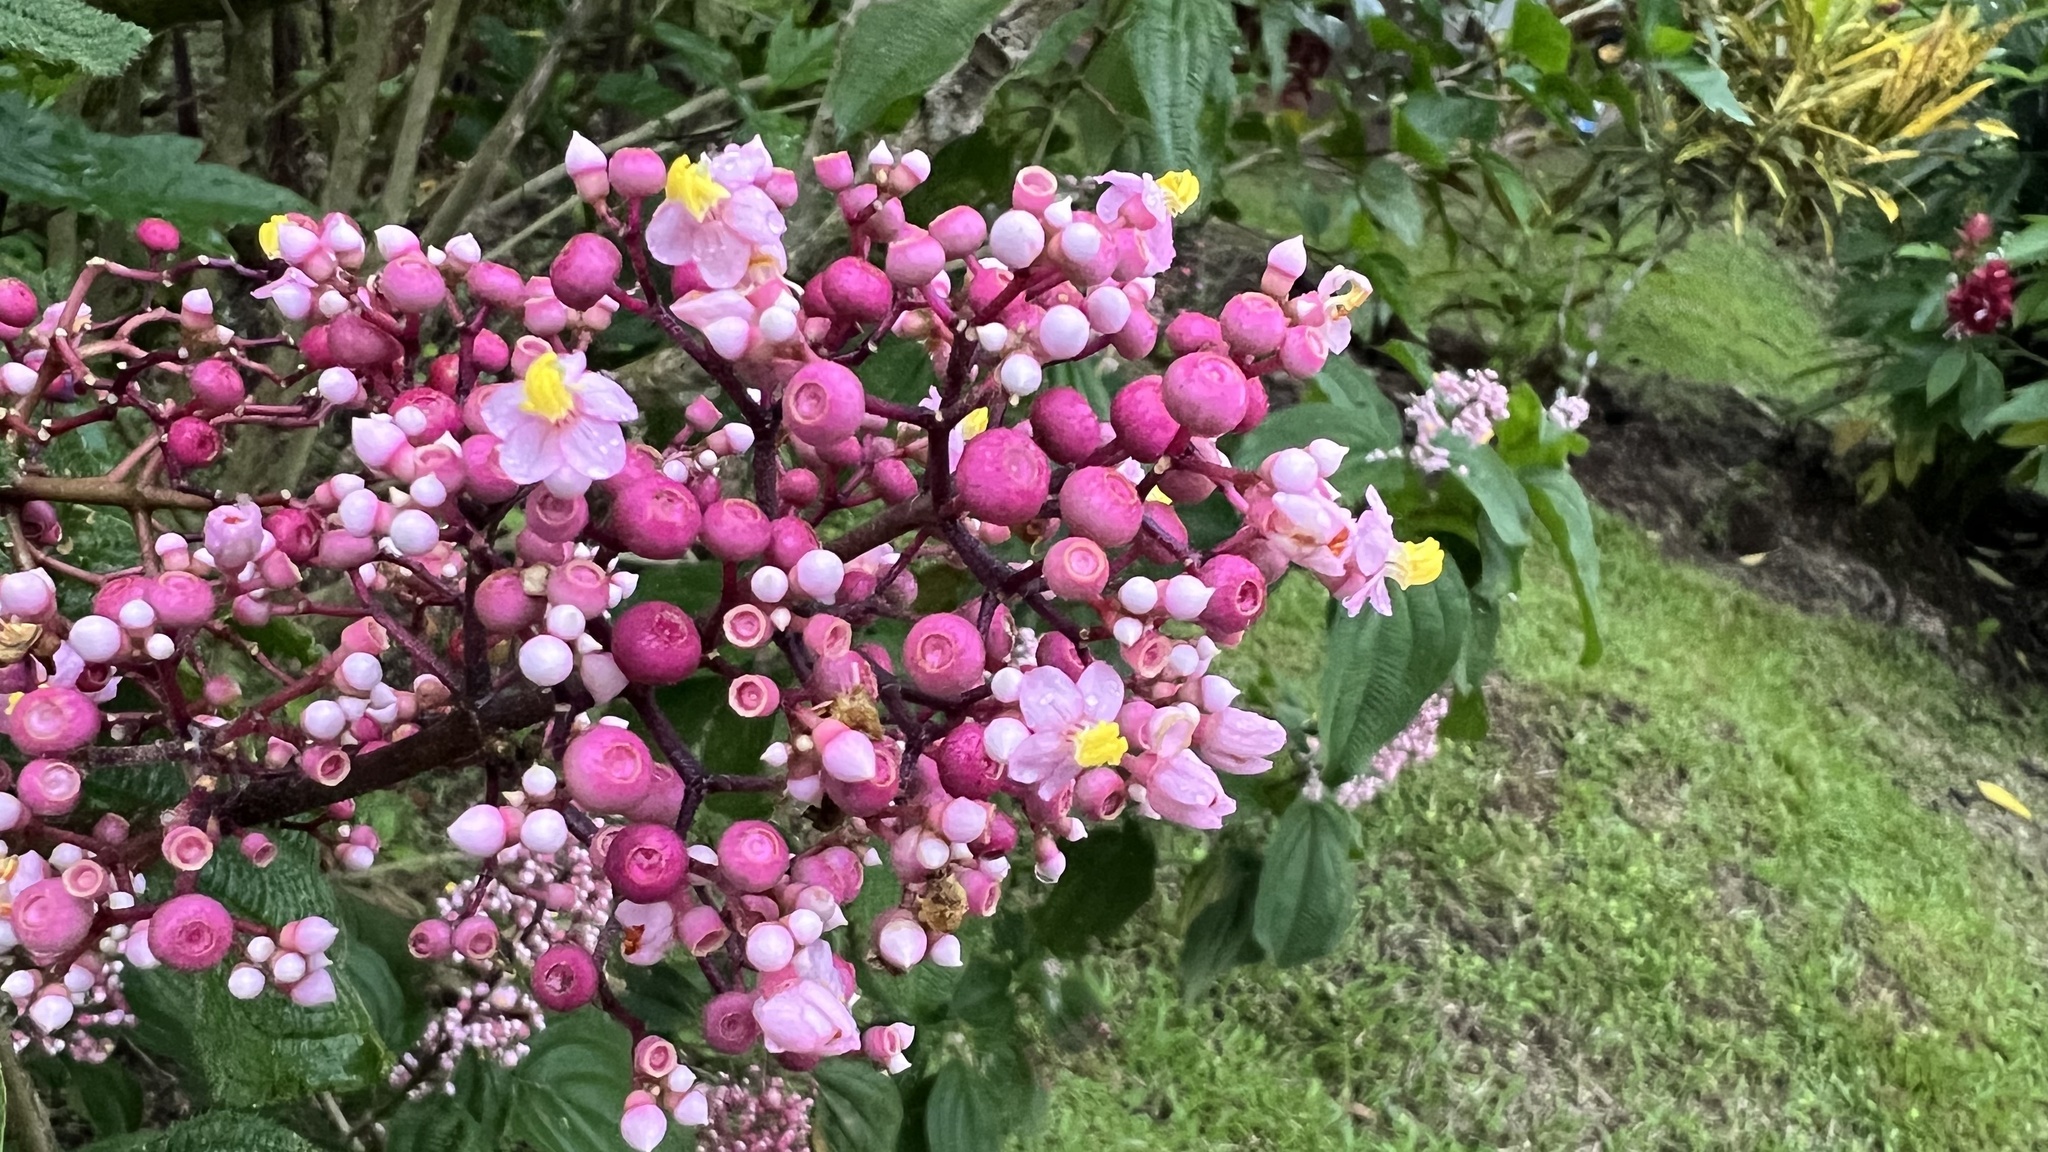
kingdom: Plantae
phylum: Tracheophyta
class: Magnoliopsida
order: Myrtales
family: Melastomataceae
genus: Miconia
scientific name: Miconia subcrustulata
